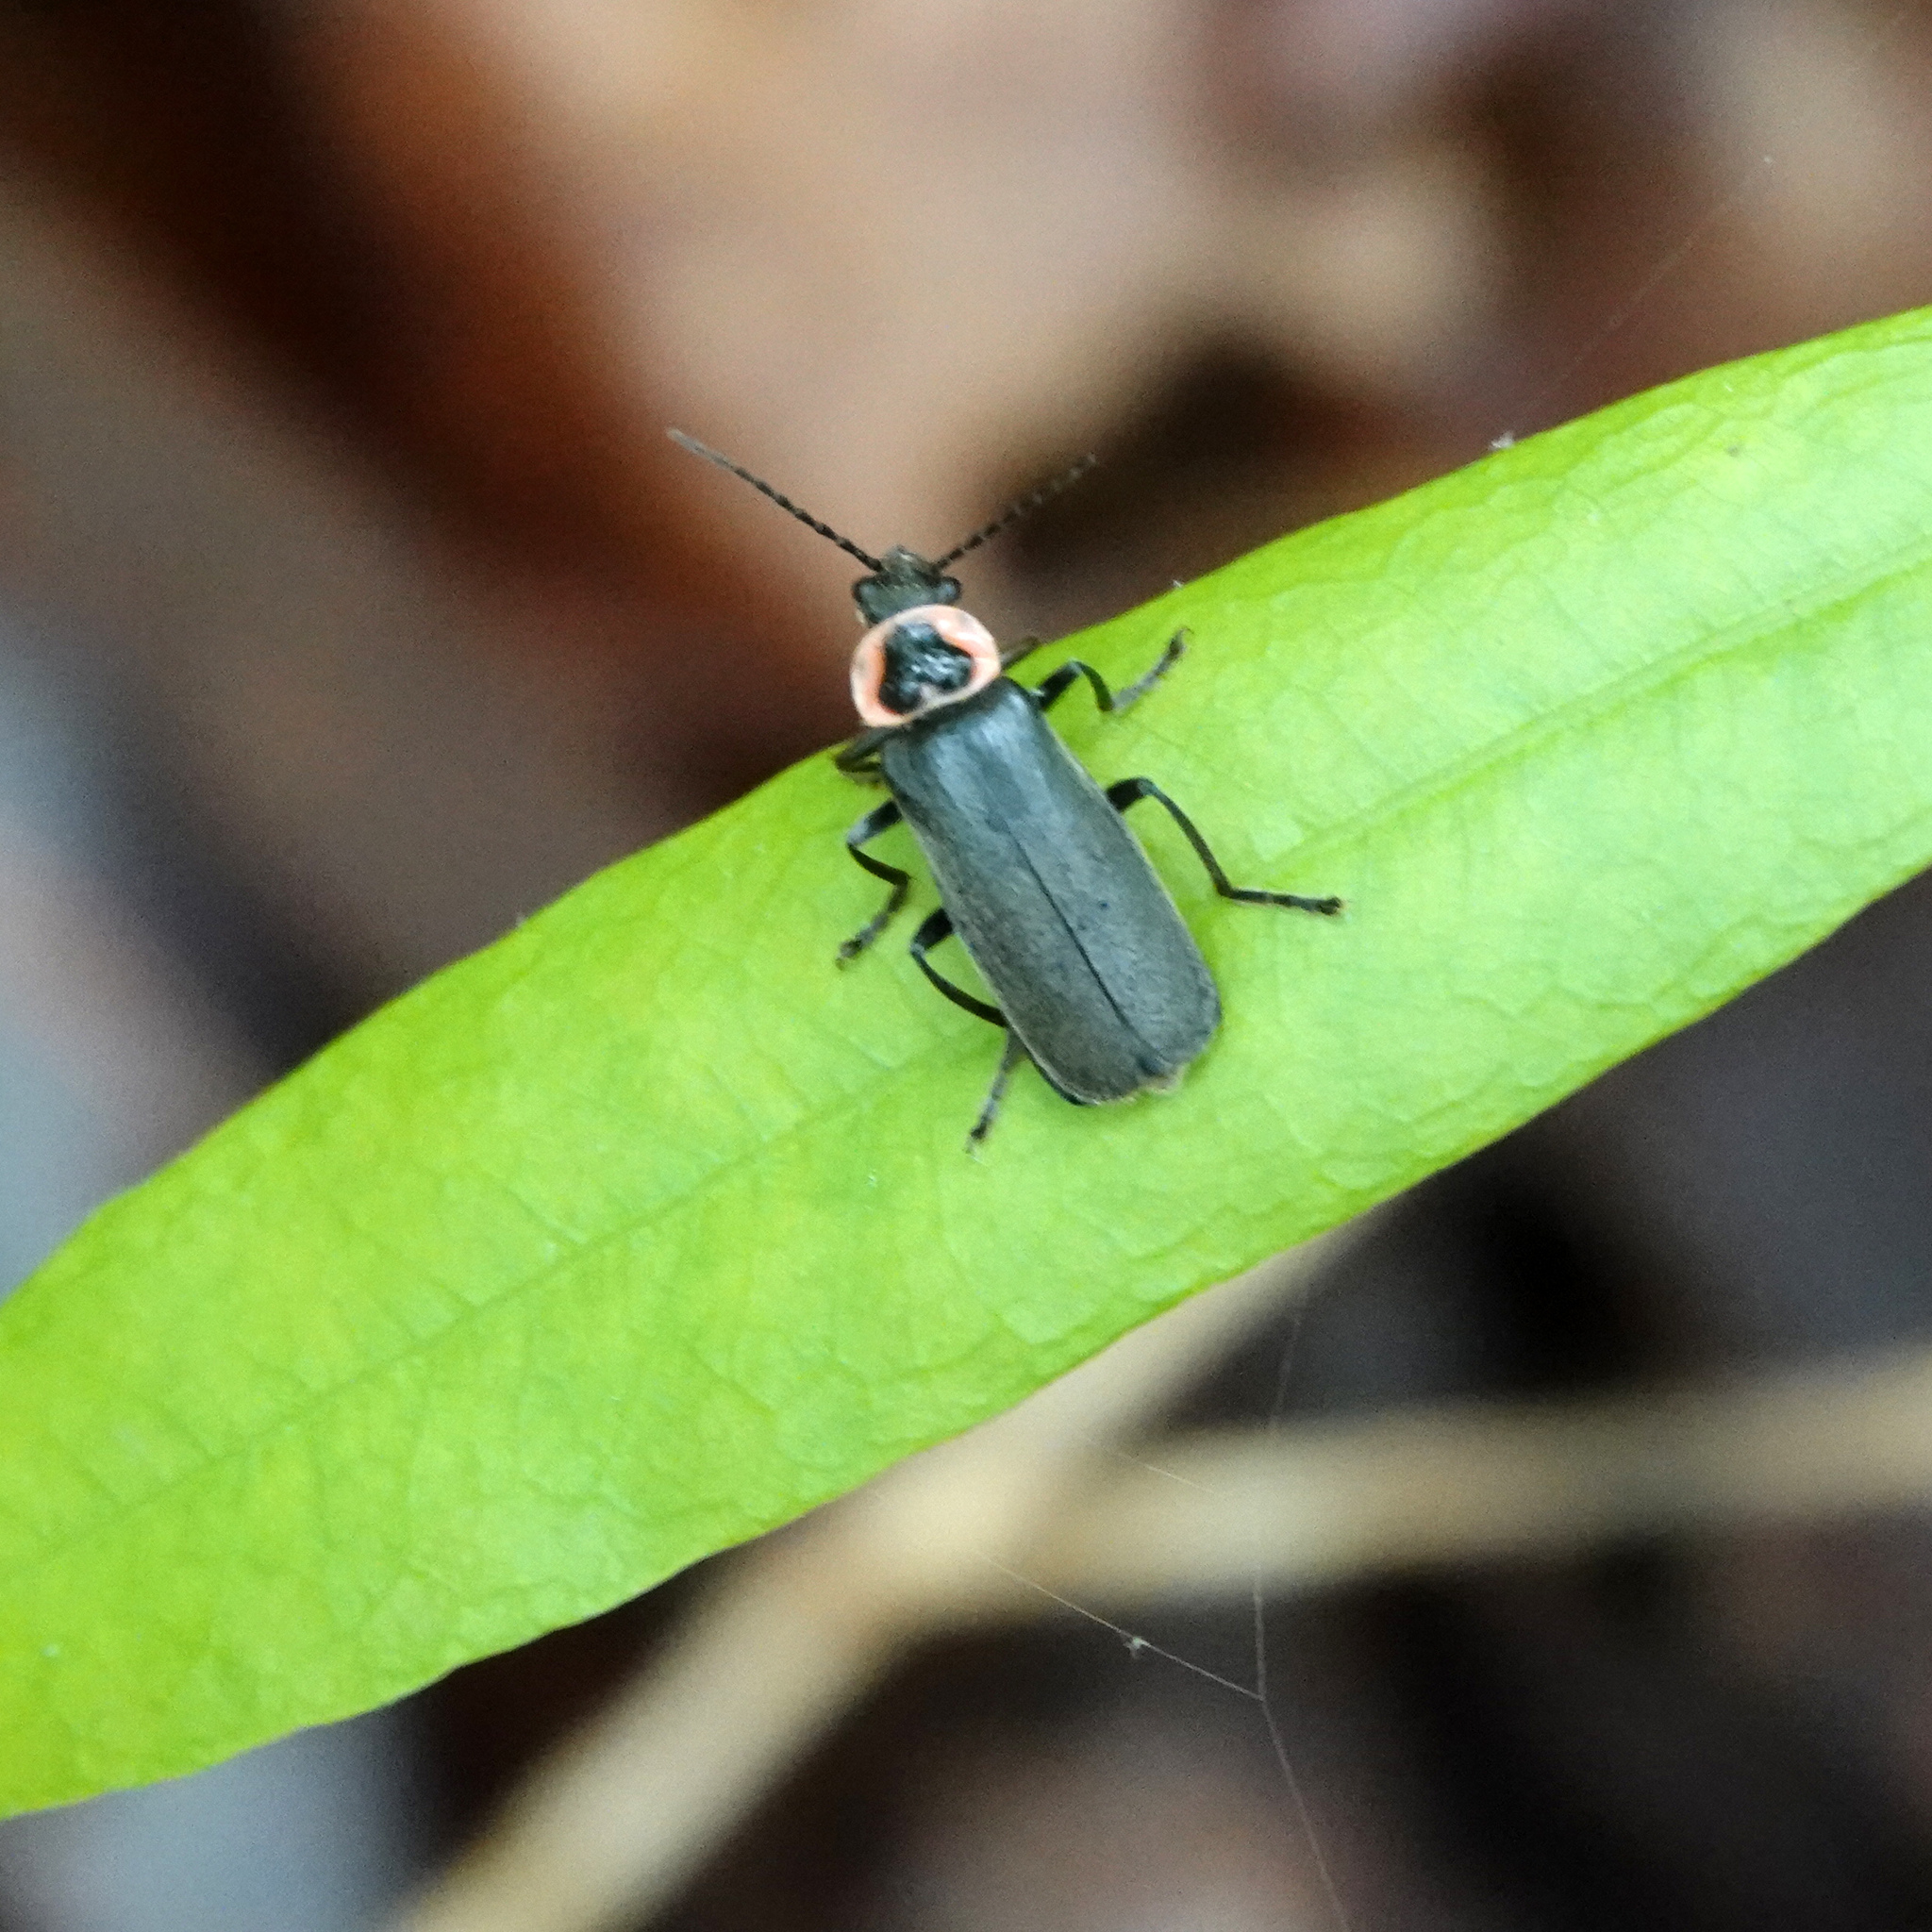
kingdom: Animalia
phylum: Arthropoda
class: Insecta
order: Coleoptera
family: Cantharidae
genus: Atalantycha
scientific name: Atalantycha neglecta
